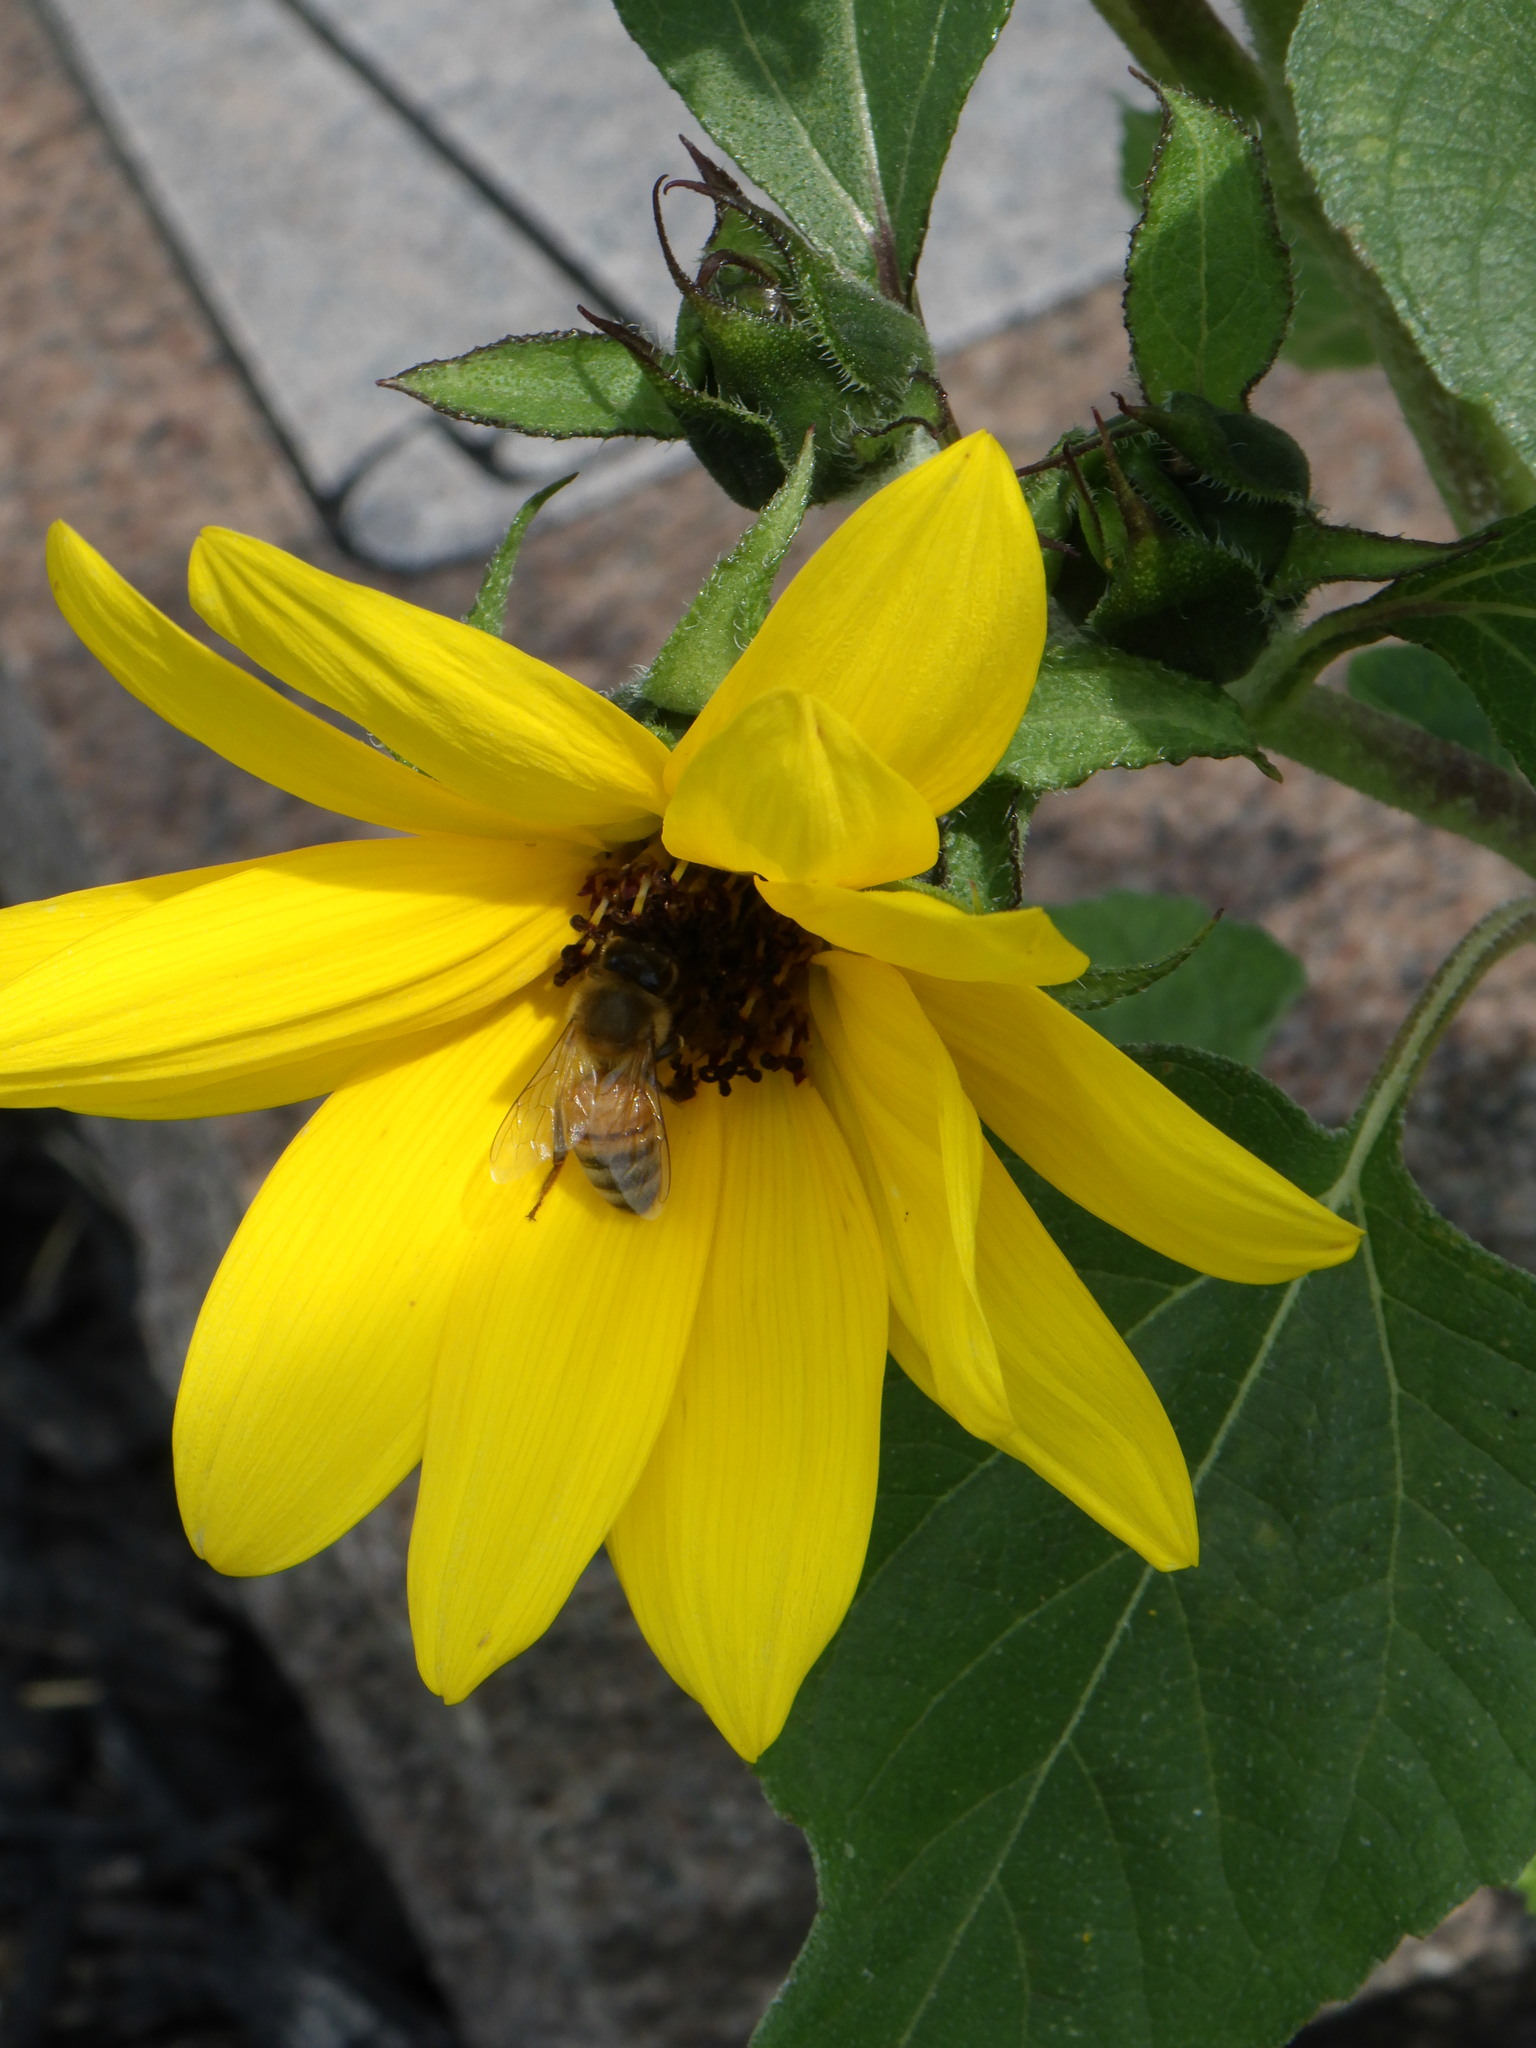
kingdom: Animalia
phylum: Arthropoda
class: Insecta
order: Hymenoptera
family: Apidae
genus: Apis
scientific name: Apis mellifera
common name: Honey bee
